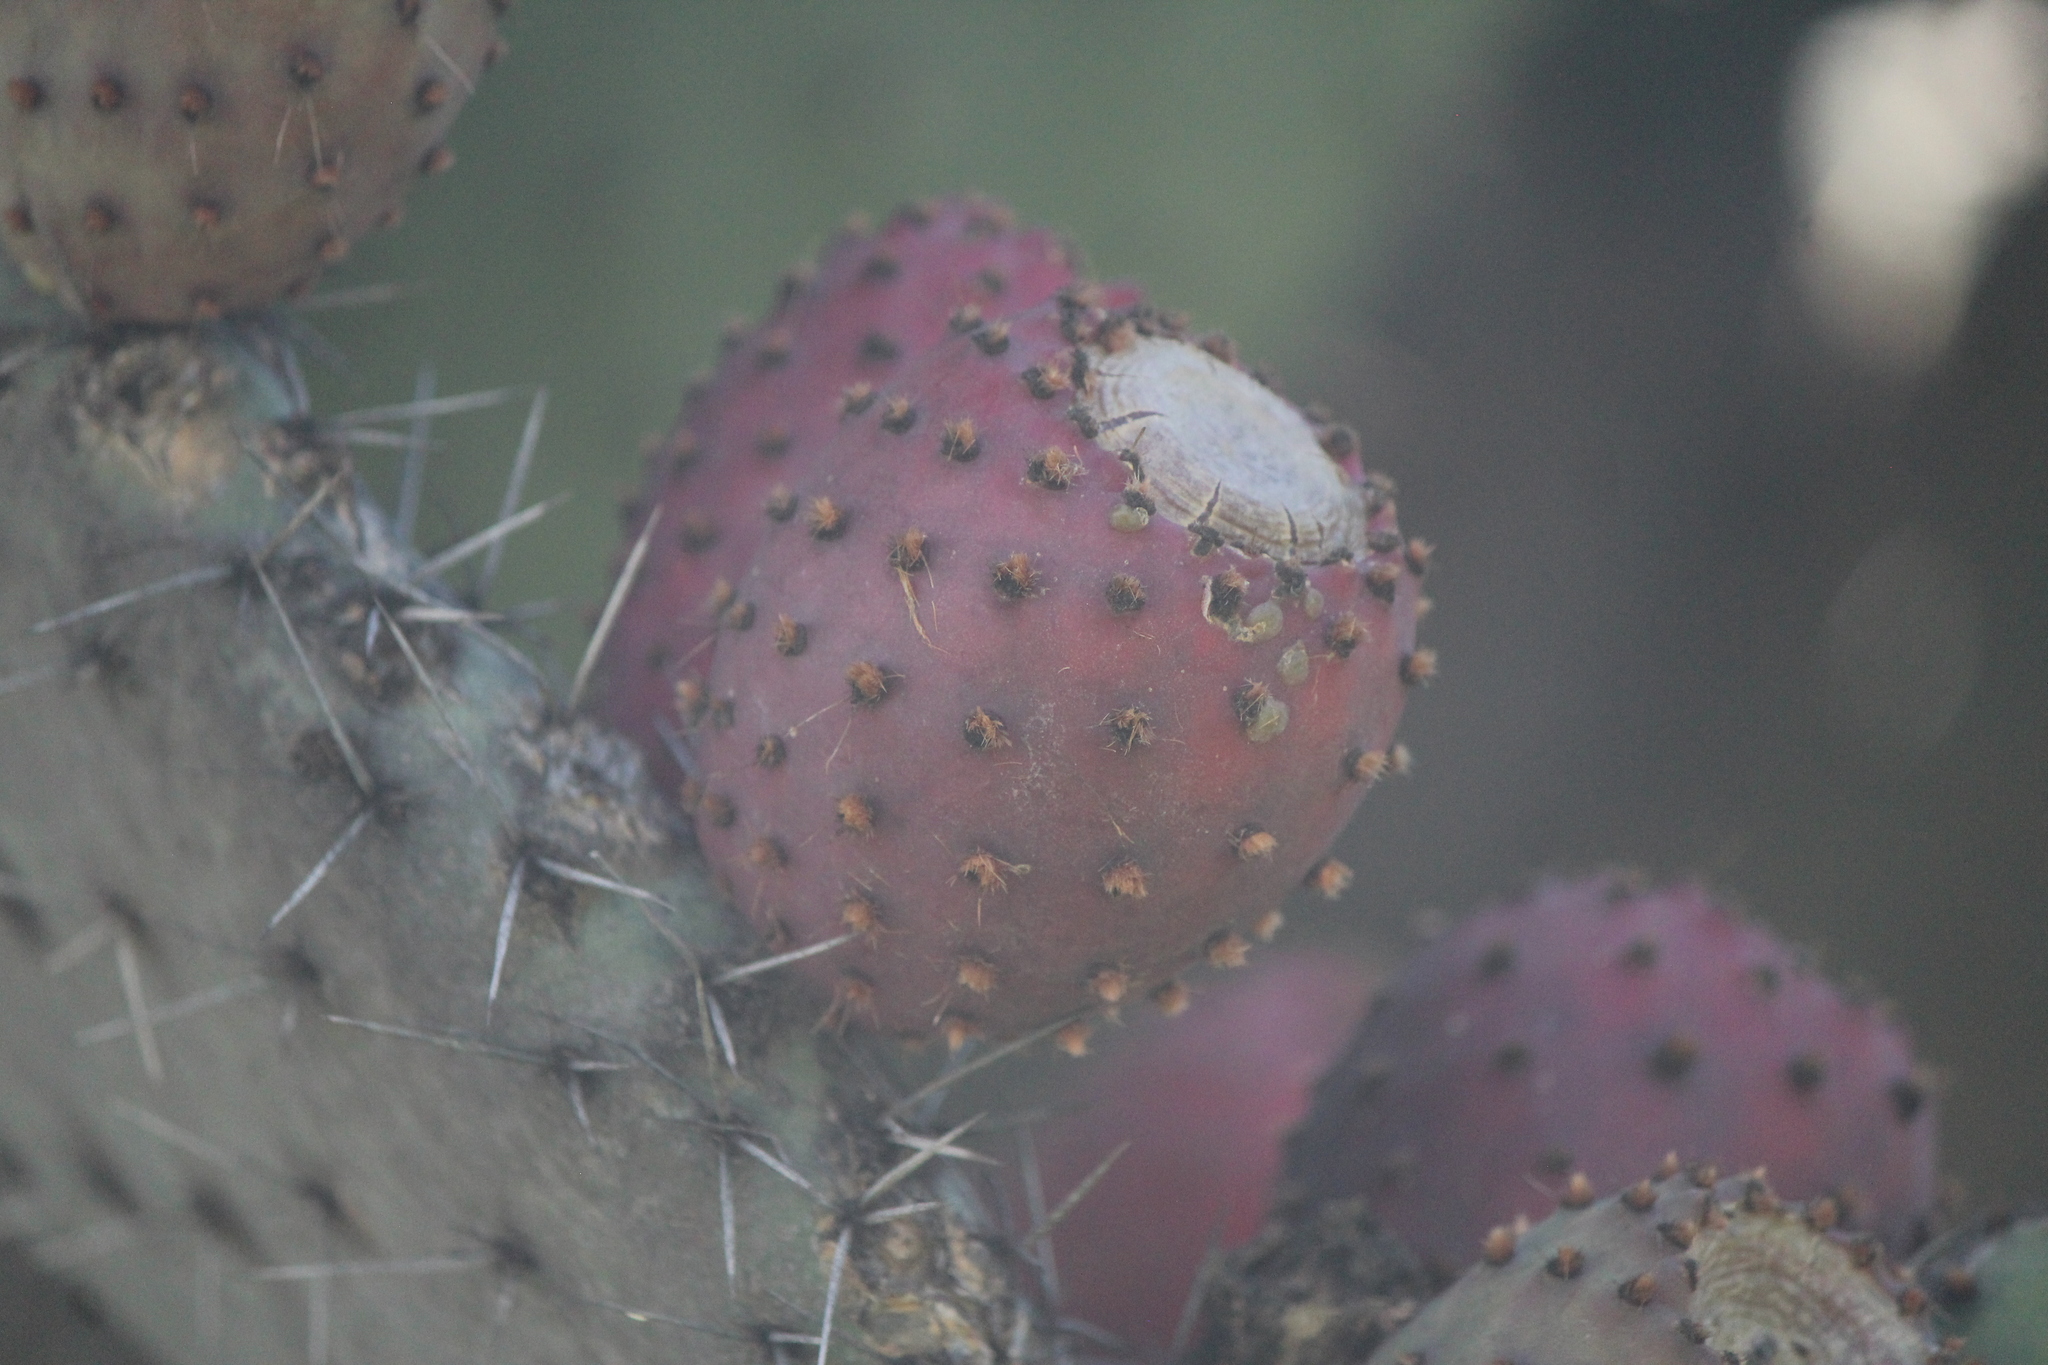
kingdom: Plantae
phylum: Tracheophyta
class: Magnoliopsida
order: Caryophyllales
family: Cactaceae
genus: Opuntia
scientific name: Opuntia ficus-indica
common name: Barbary fig
